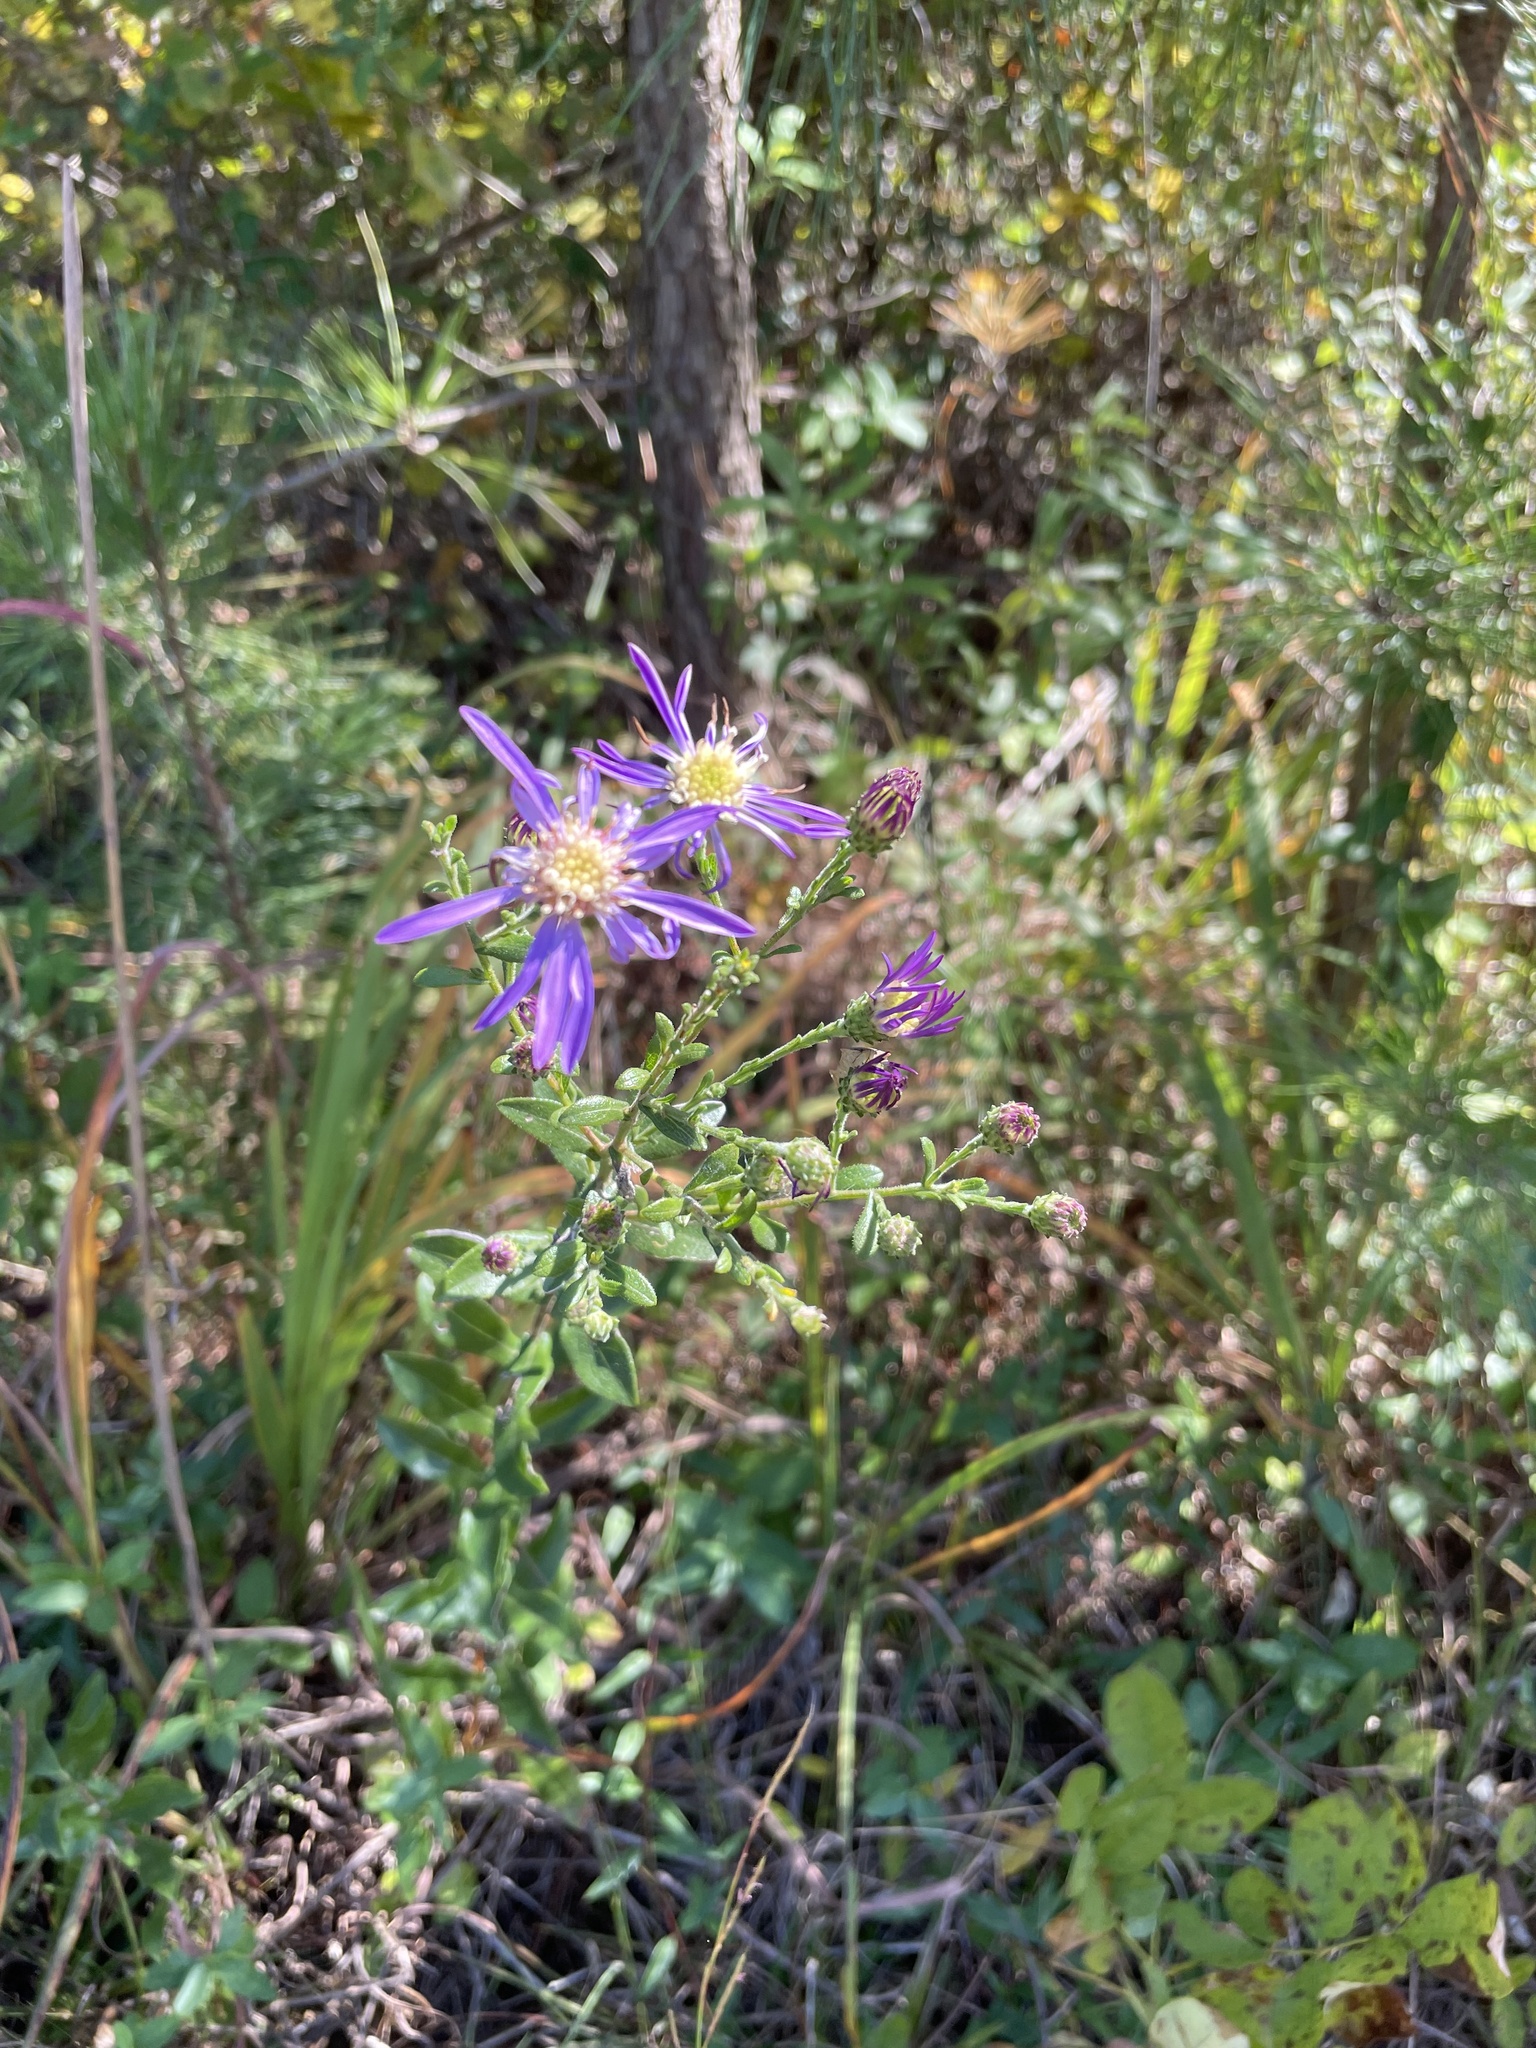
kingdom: Plantae
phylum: Tracheophyta
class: Magnoliopsida
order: Asterales
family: Asteraceae
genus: Symphyotrichum
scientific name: Symphyotrichum georgianum
